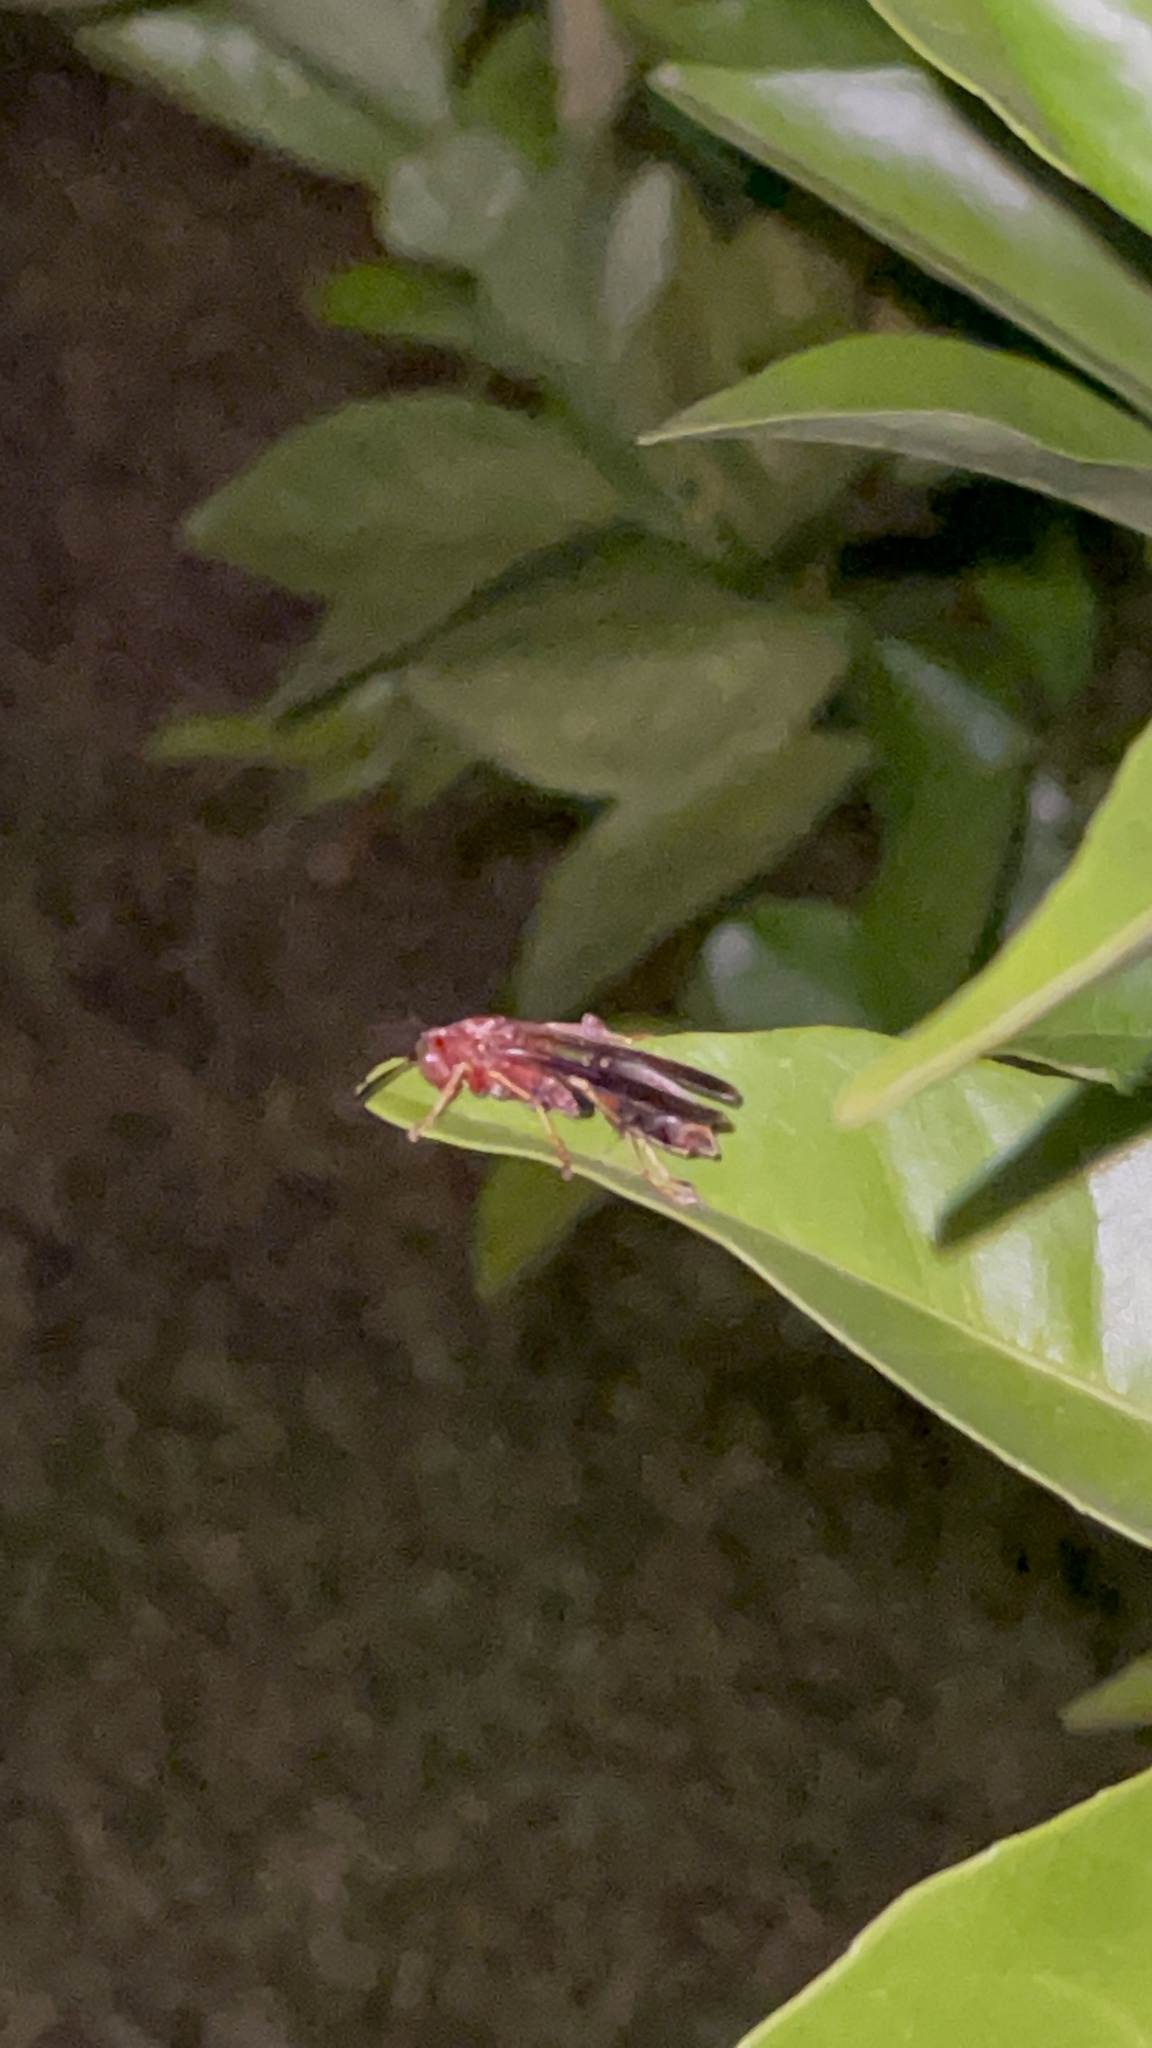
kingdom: Animalia
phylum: Arthropoda
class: Insecta
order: Hymenoptera
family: Vespidae
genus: Fuscopolistes
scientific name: Fuscopolistes
